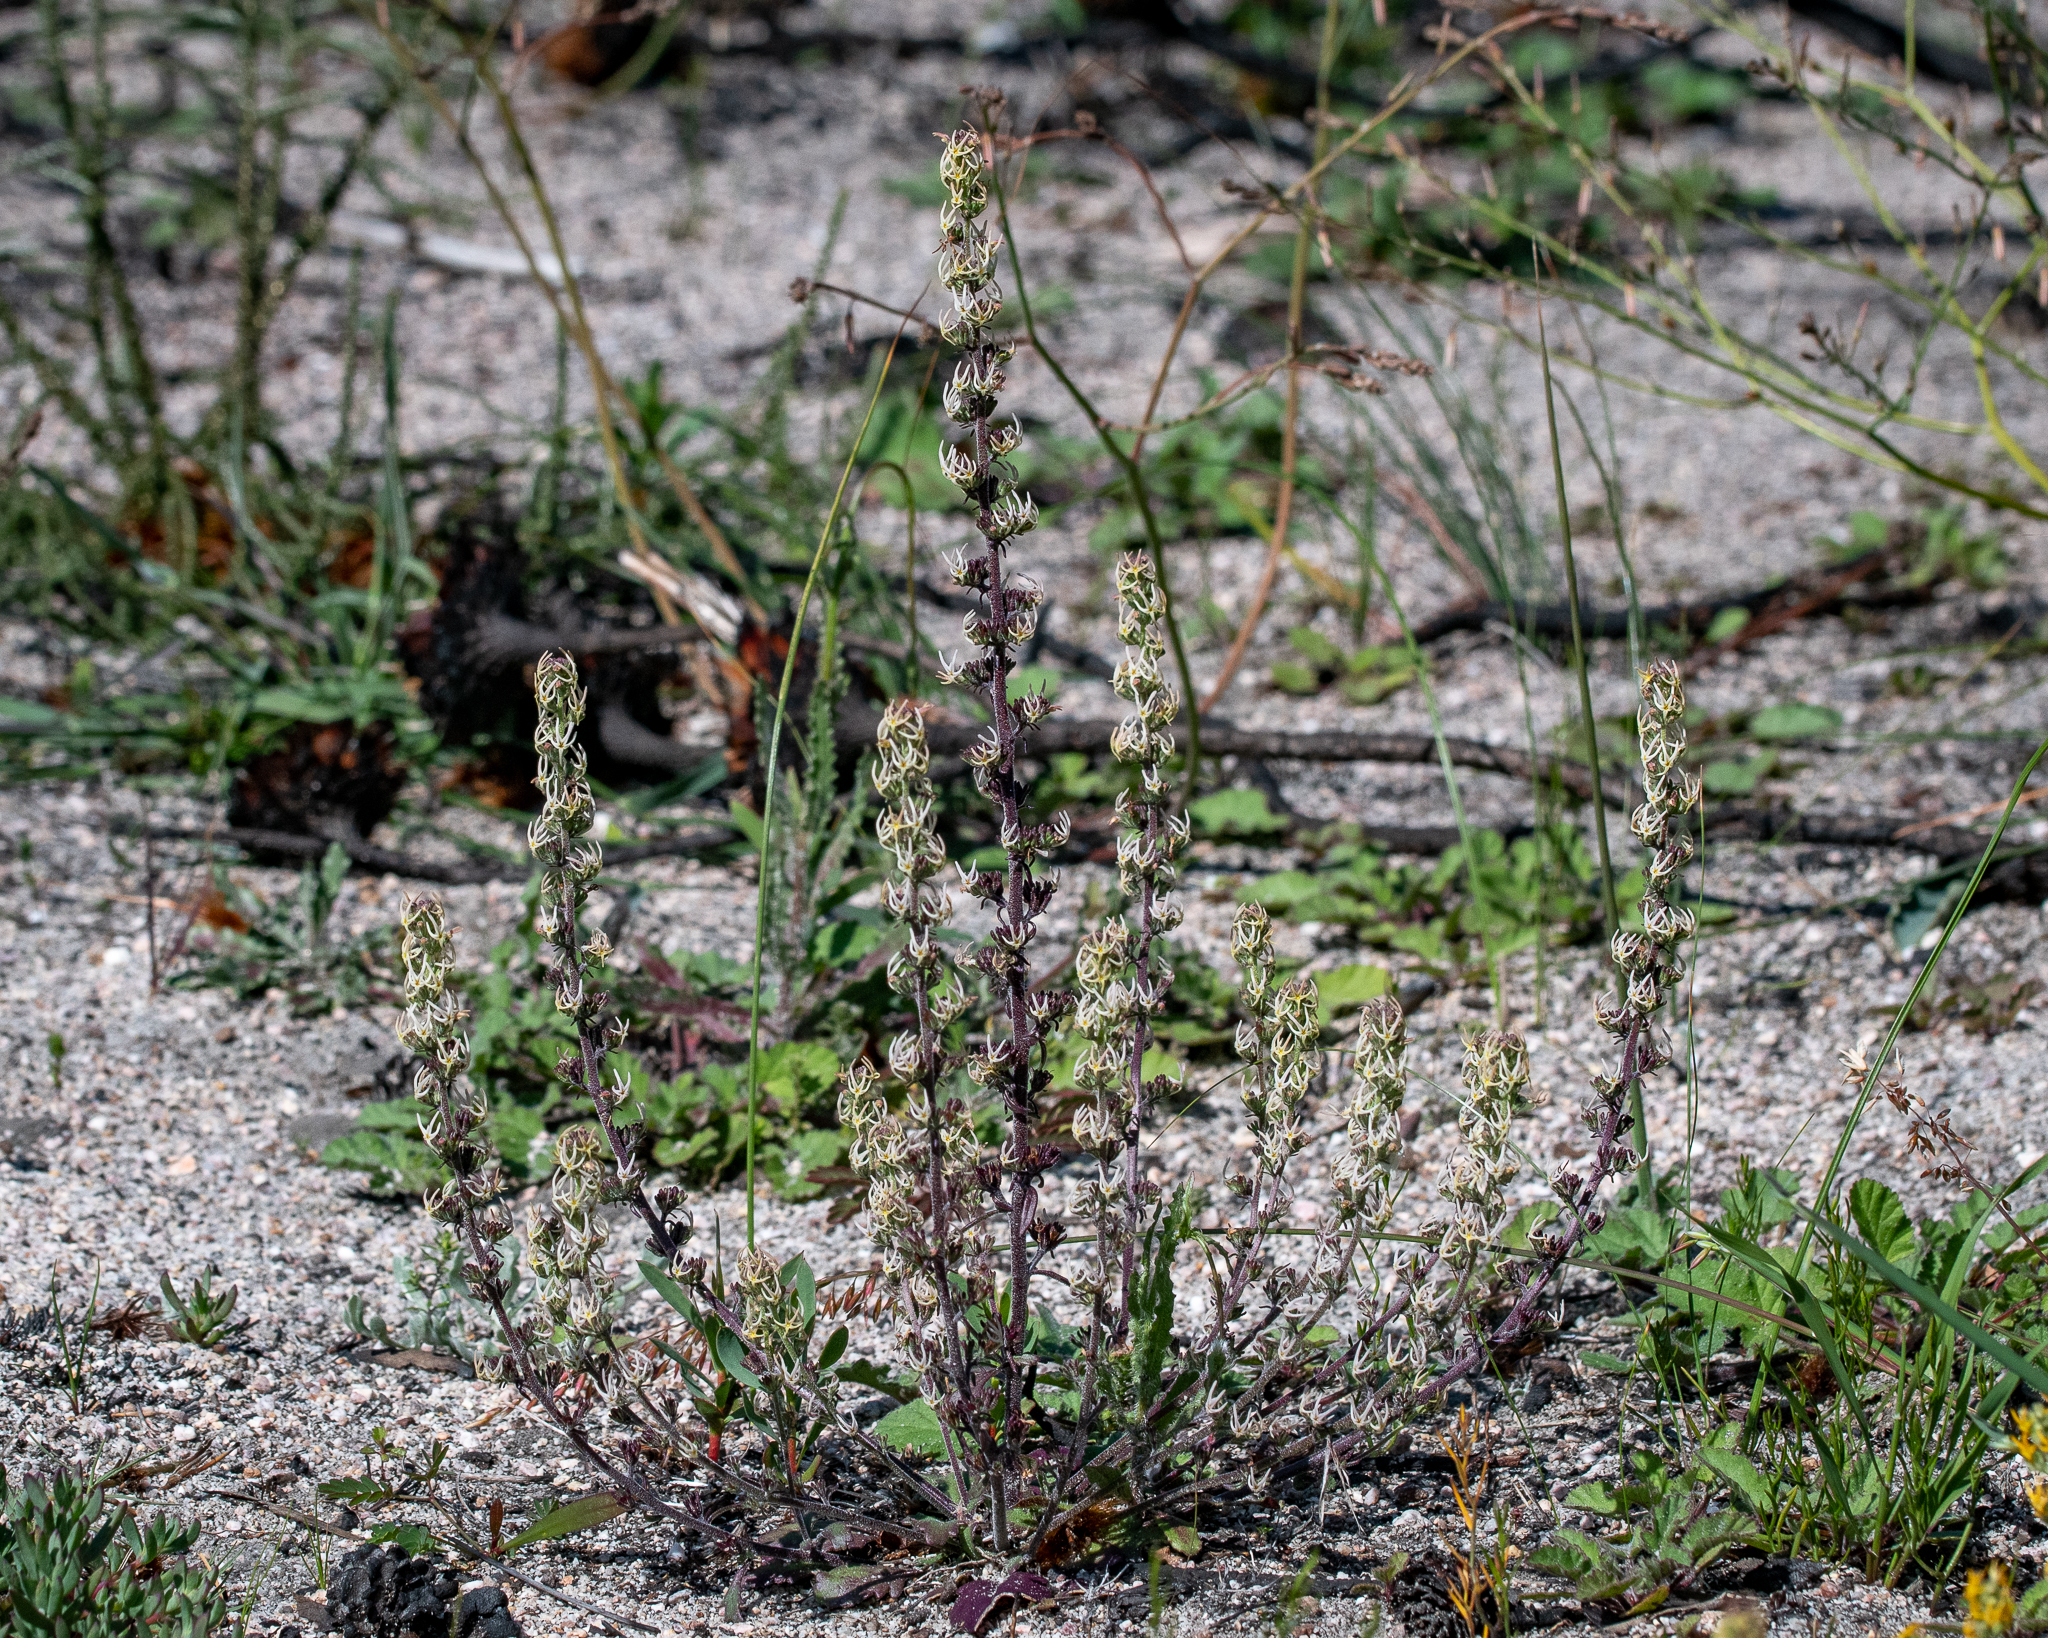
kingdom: Plantae
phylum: Tracheophyta
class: Magnoliopsida
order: Lamiales
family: Scrophulariaceae
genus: Manulea
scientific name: Manulea cheiranthus
